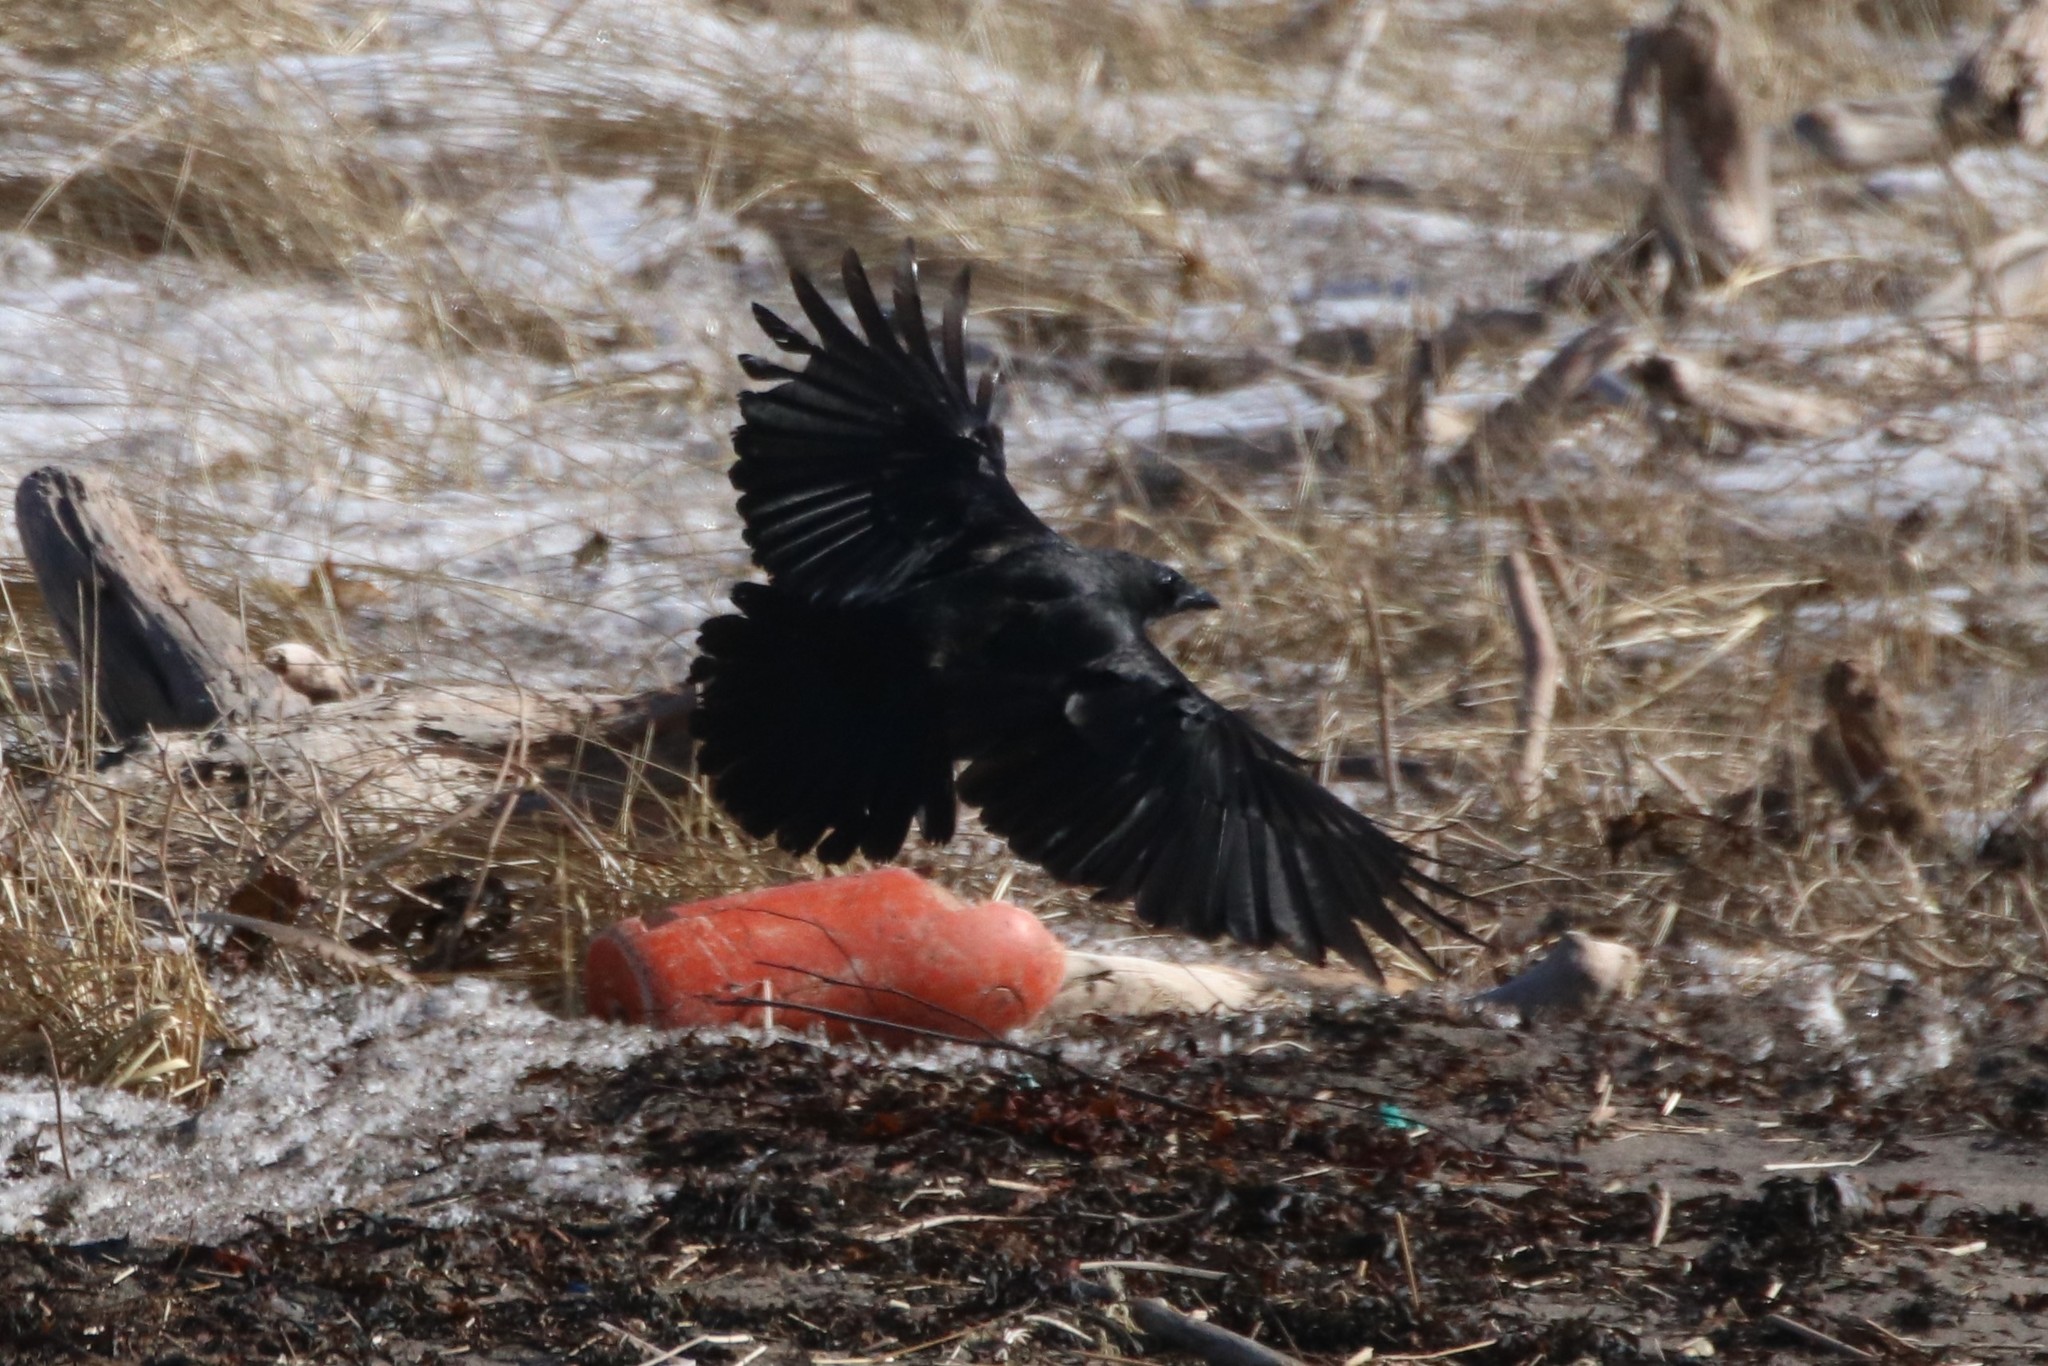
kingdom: Animalia
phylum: Chordata
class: Aves
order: Passeriformes
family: Corvidae
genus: Corvus
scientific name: Corvus brachyrhynchos
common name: American crow
